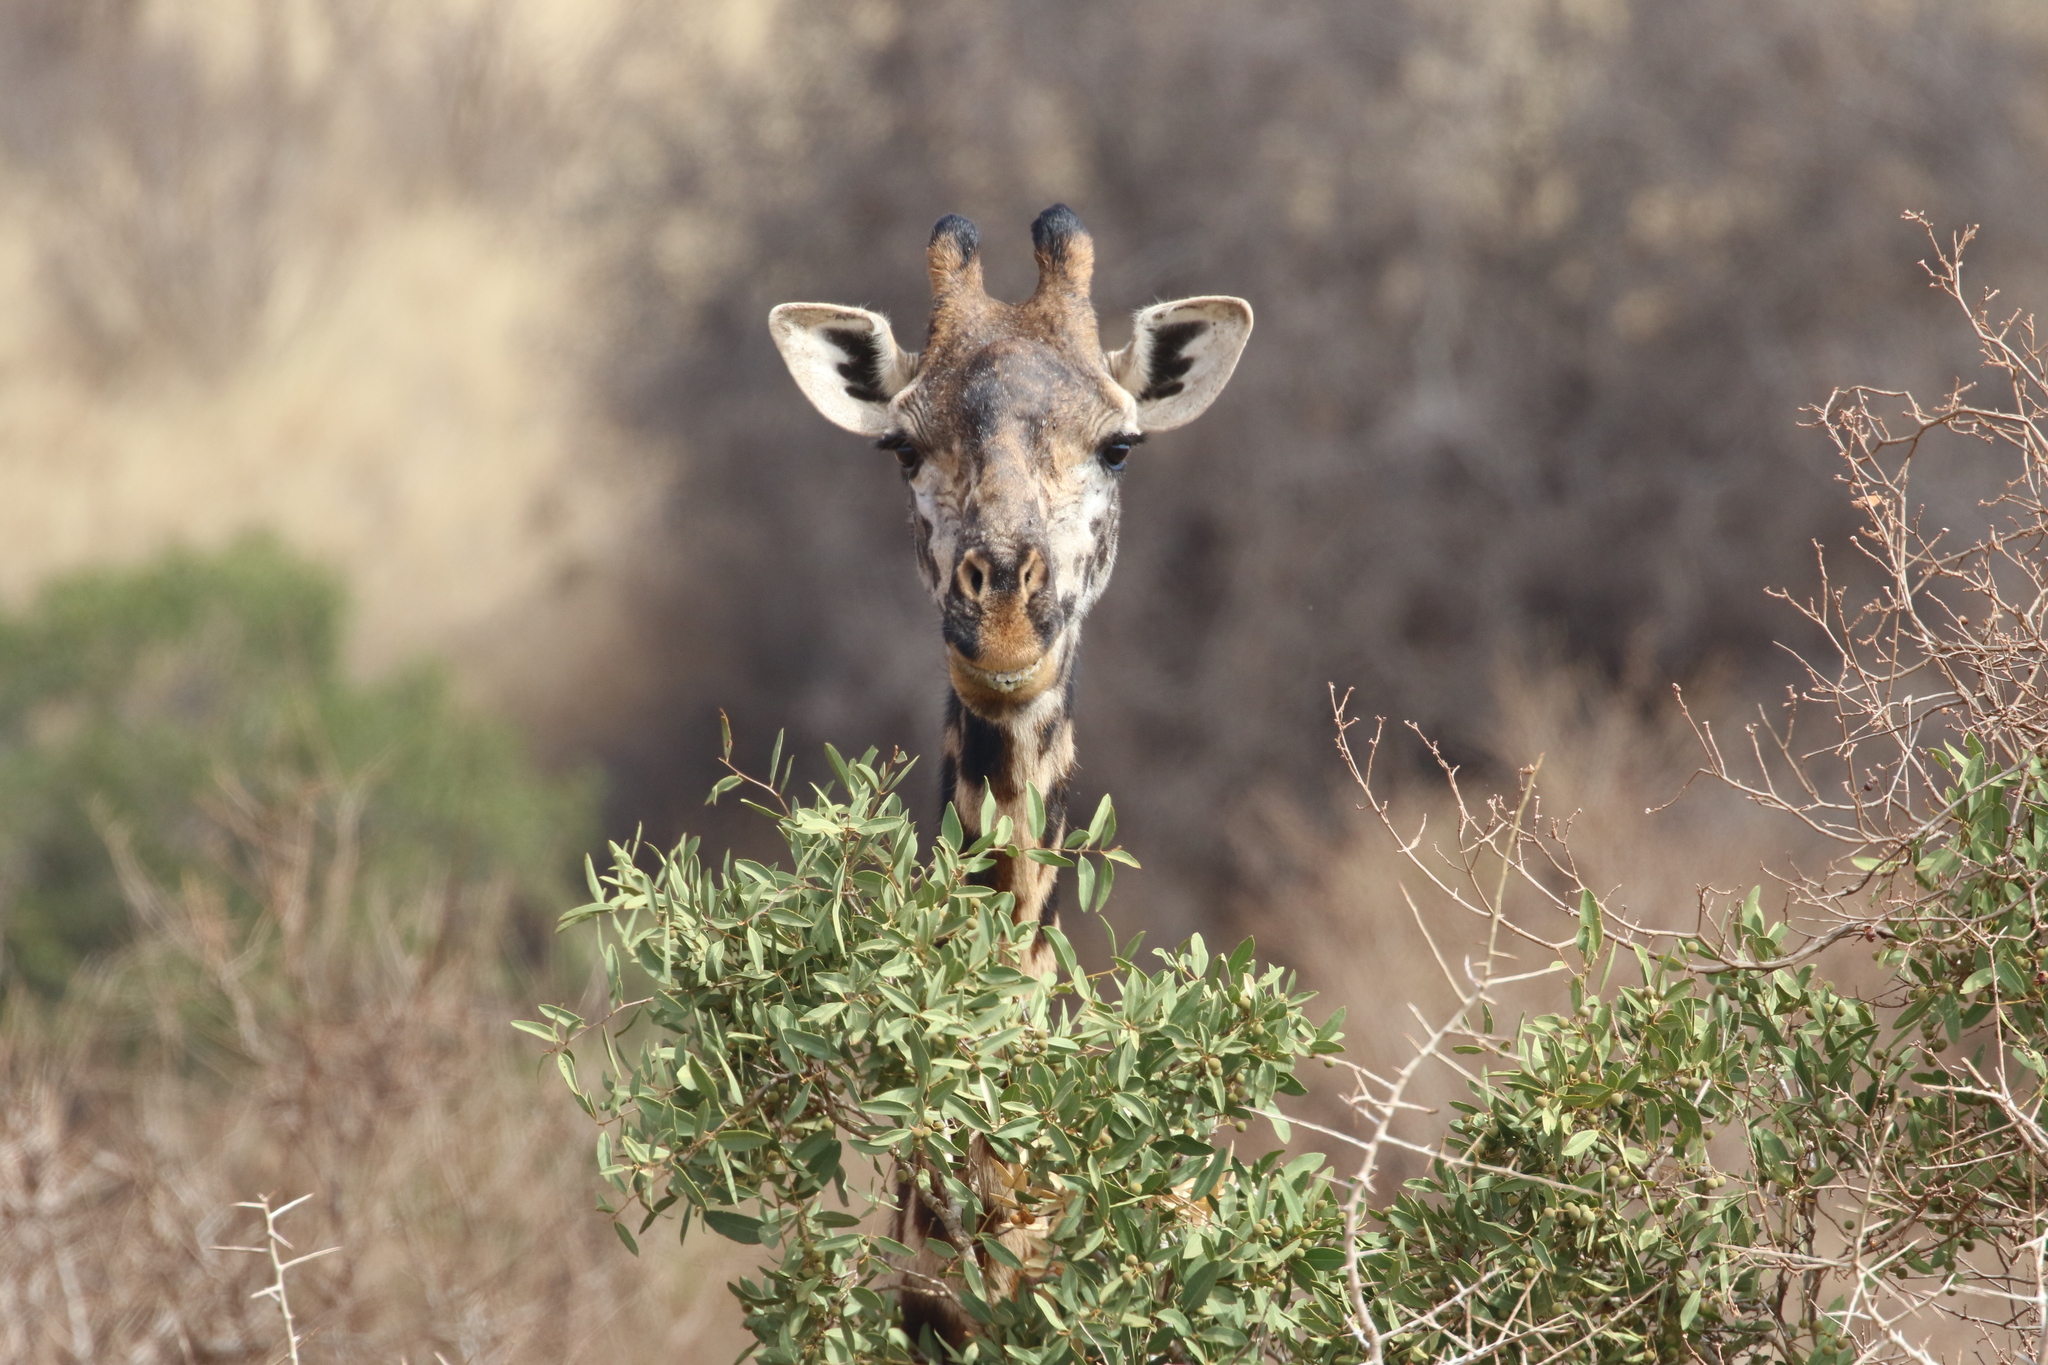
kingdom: Animalia
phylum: Chordata
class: Mammalia
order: Artiodactyla
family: Giraffidae
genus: Giraffa
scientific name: Giraffa tippelskirchi
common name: Masai giraffe
